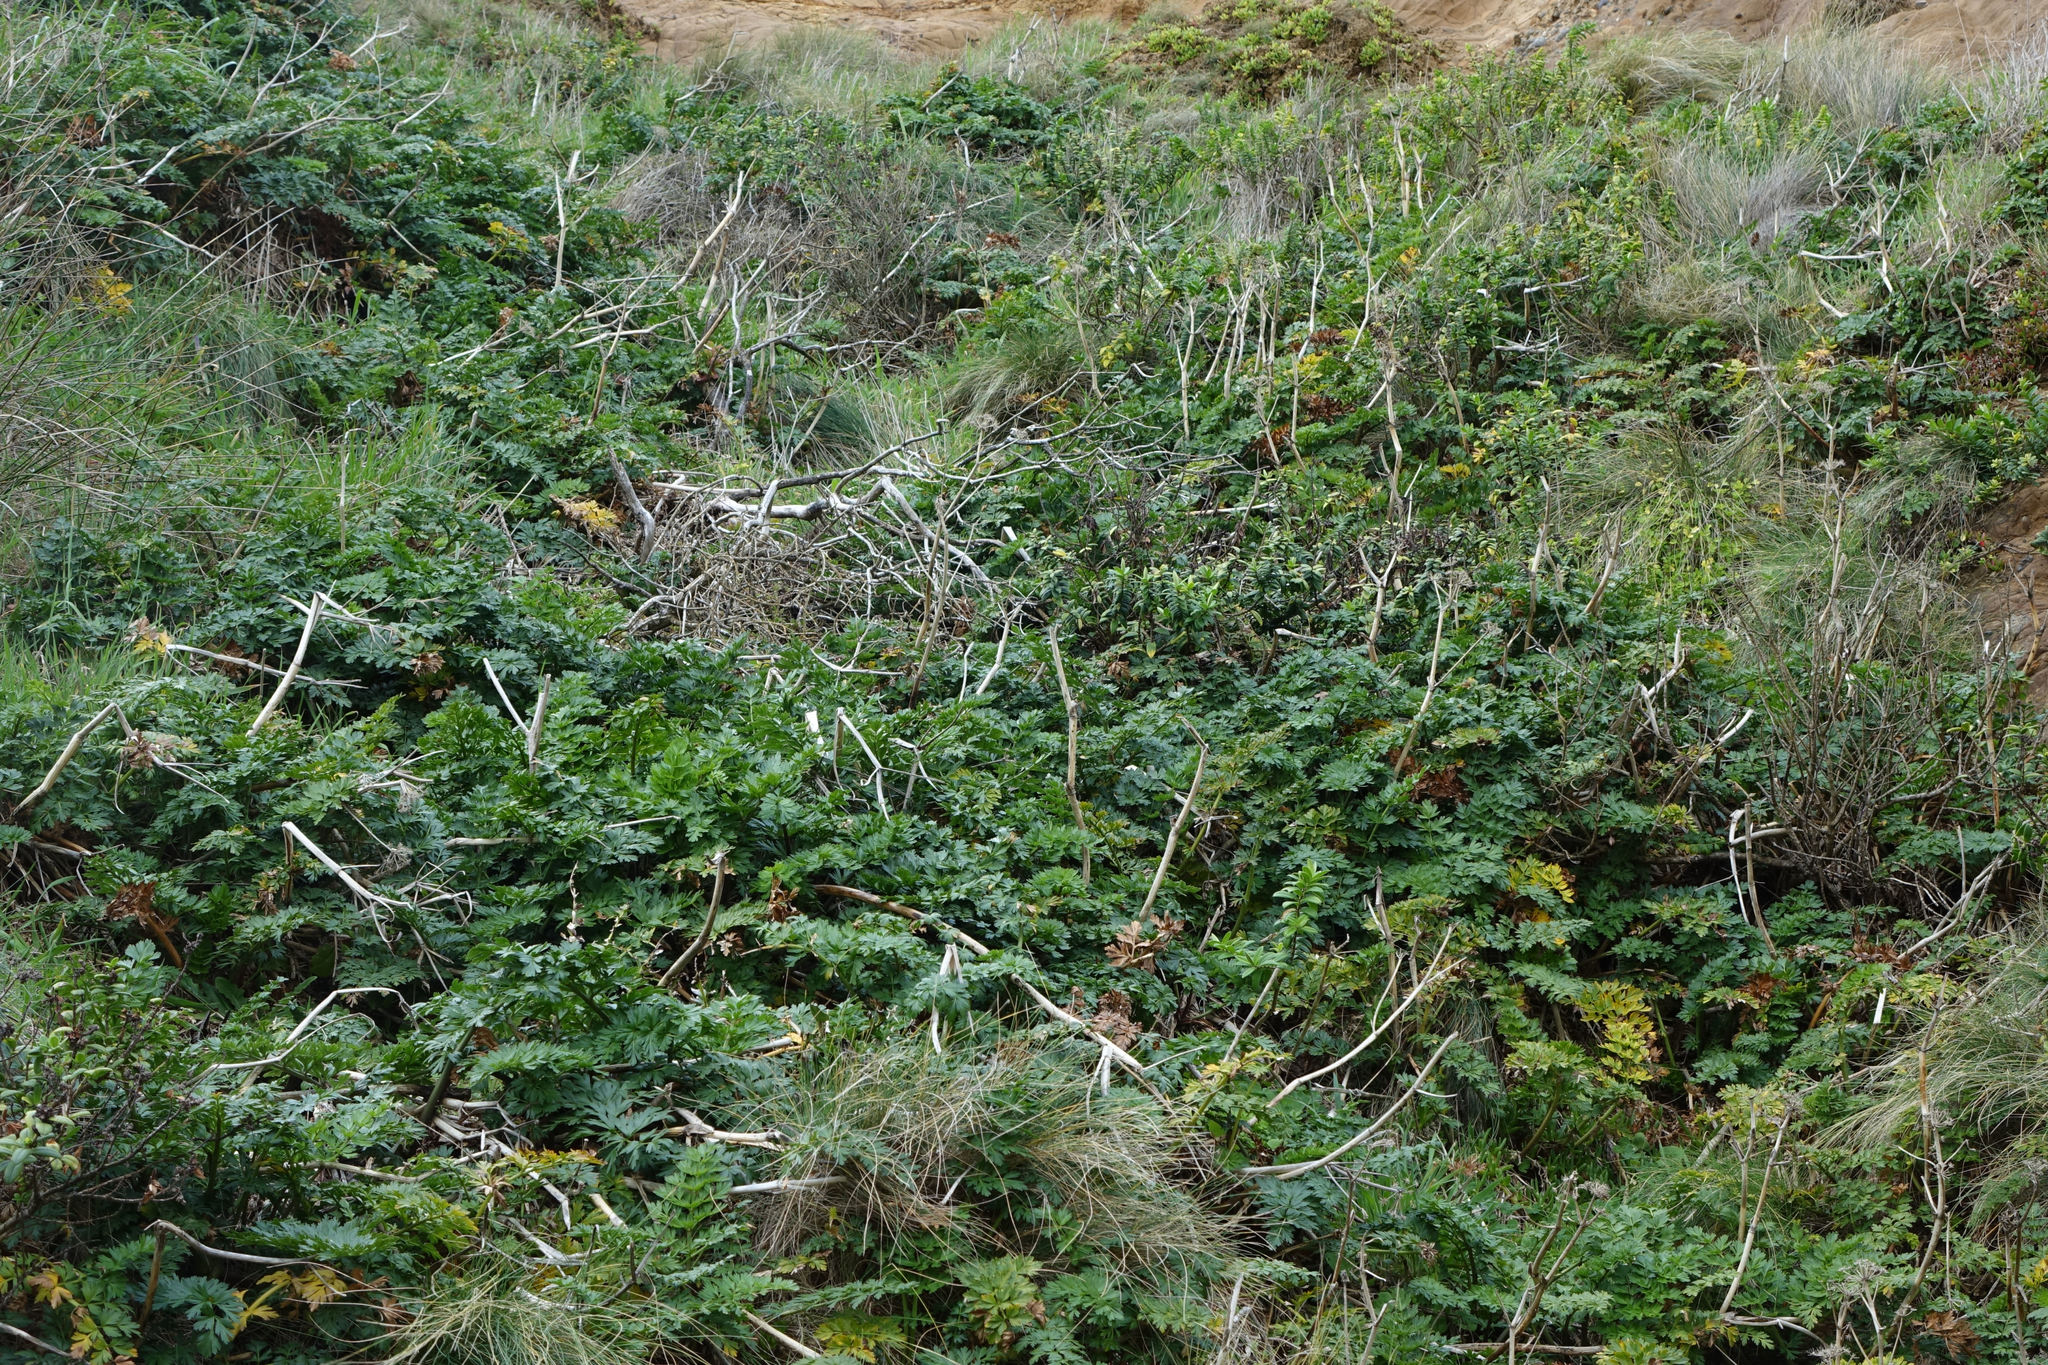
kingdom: Plantae
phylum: Tracheophyta
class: Magnoliopsida
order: Apiales
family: Apiaceae
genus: Anisotome
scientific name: Anisotome lyallii
